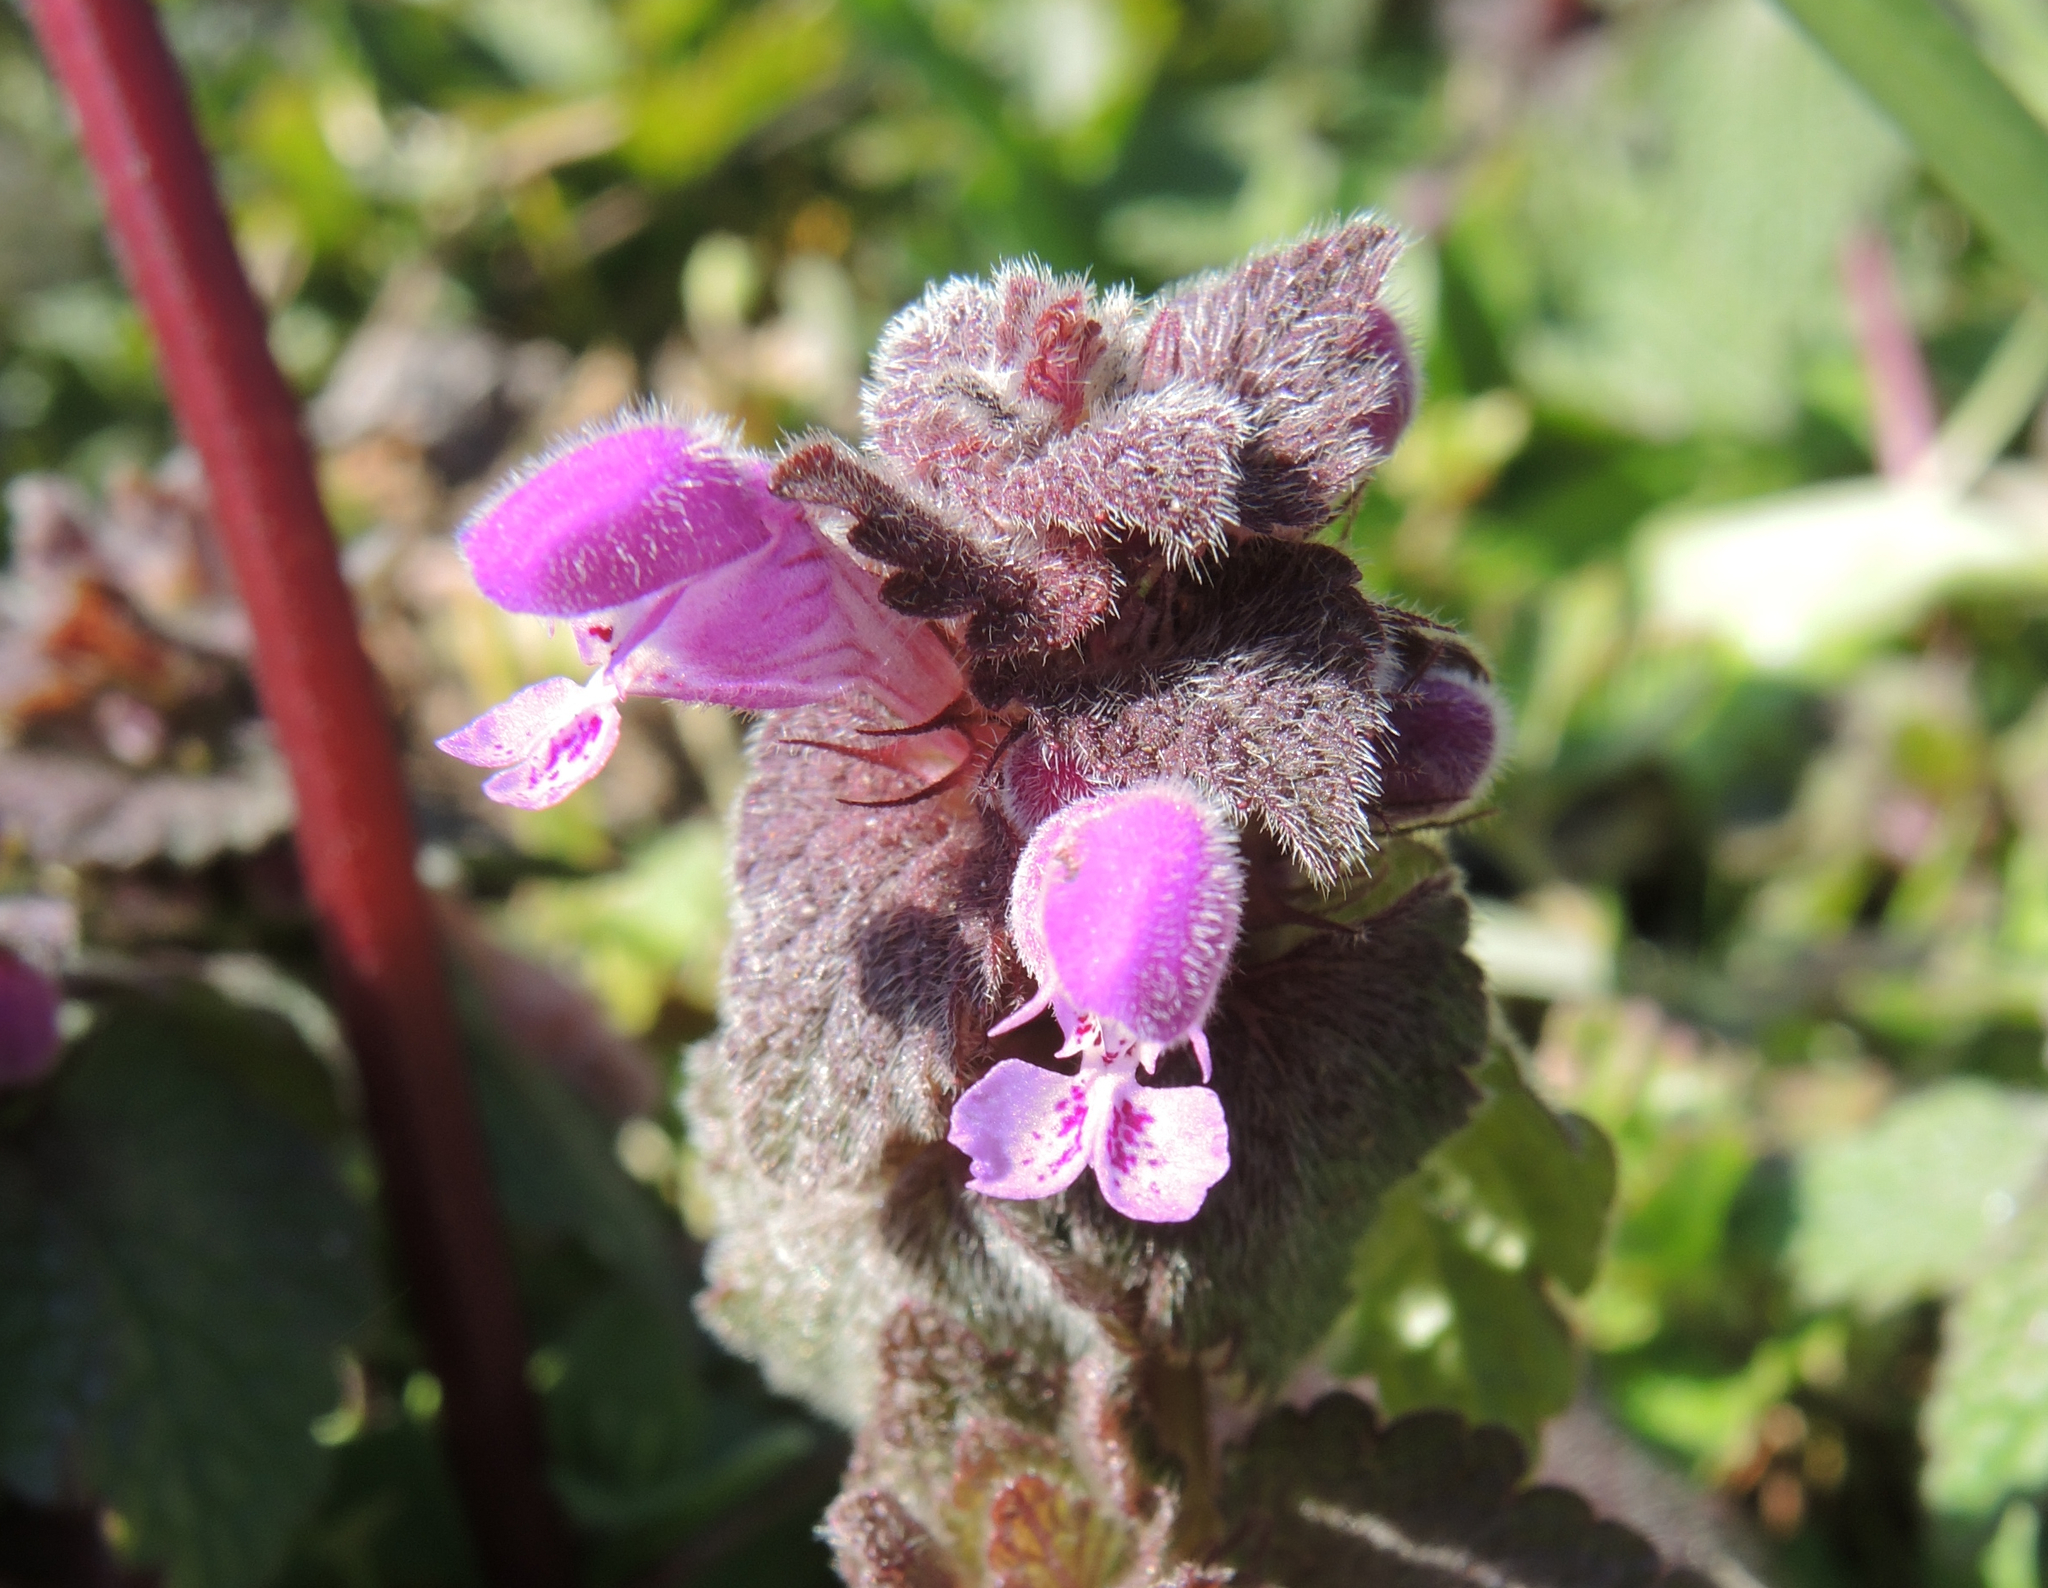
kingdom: Plantae
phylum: Tracheophyta
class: Magnoliopsida
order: Lamiales
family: Lamiaceae
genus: Lamium
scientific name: Lamium purpureum
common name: Red dead-nettle
